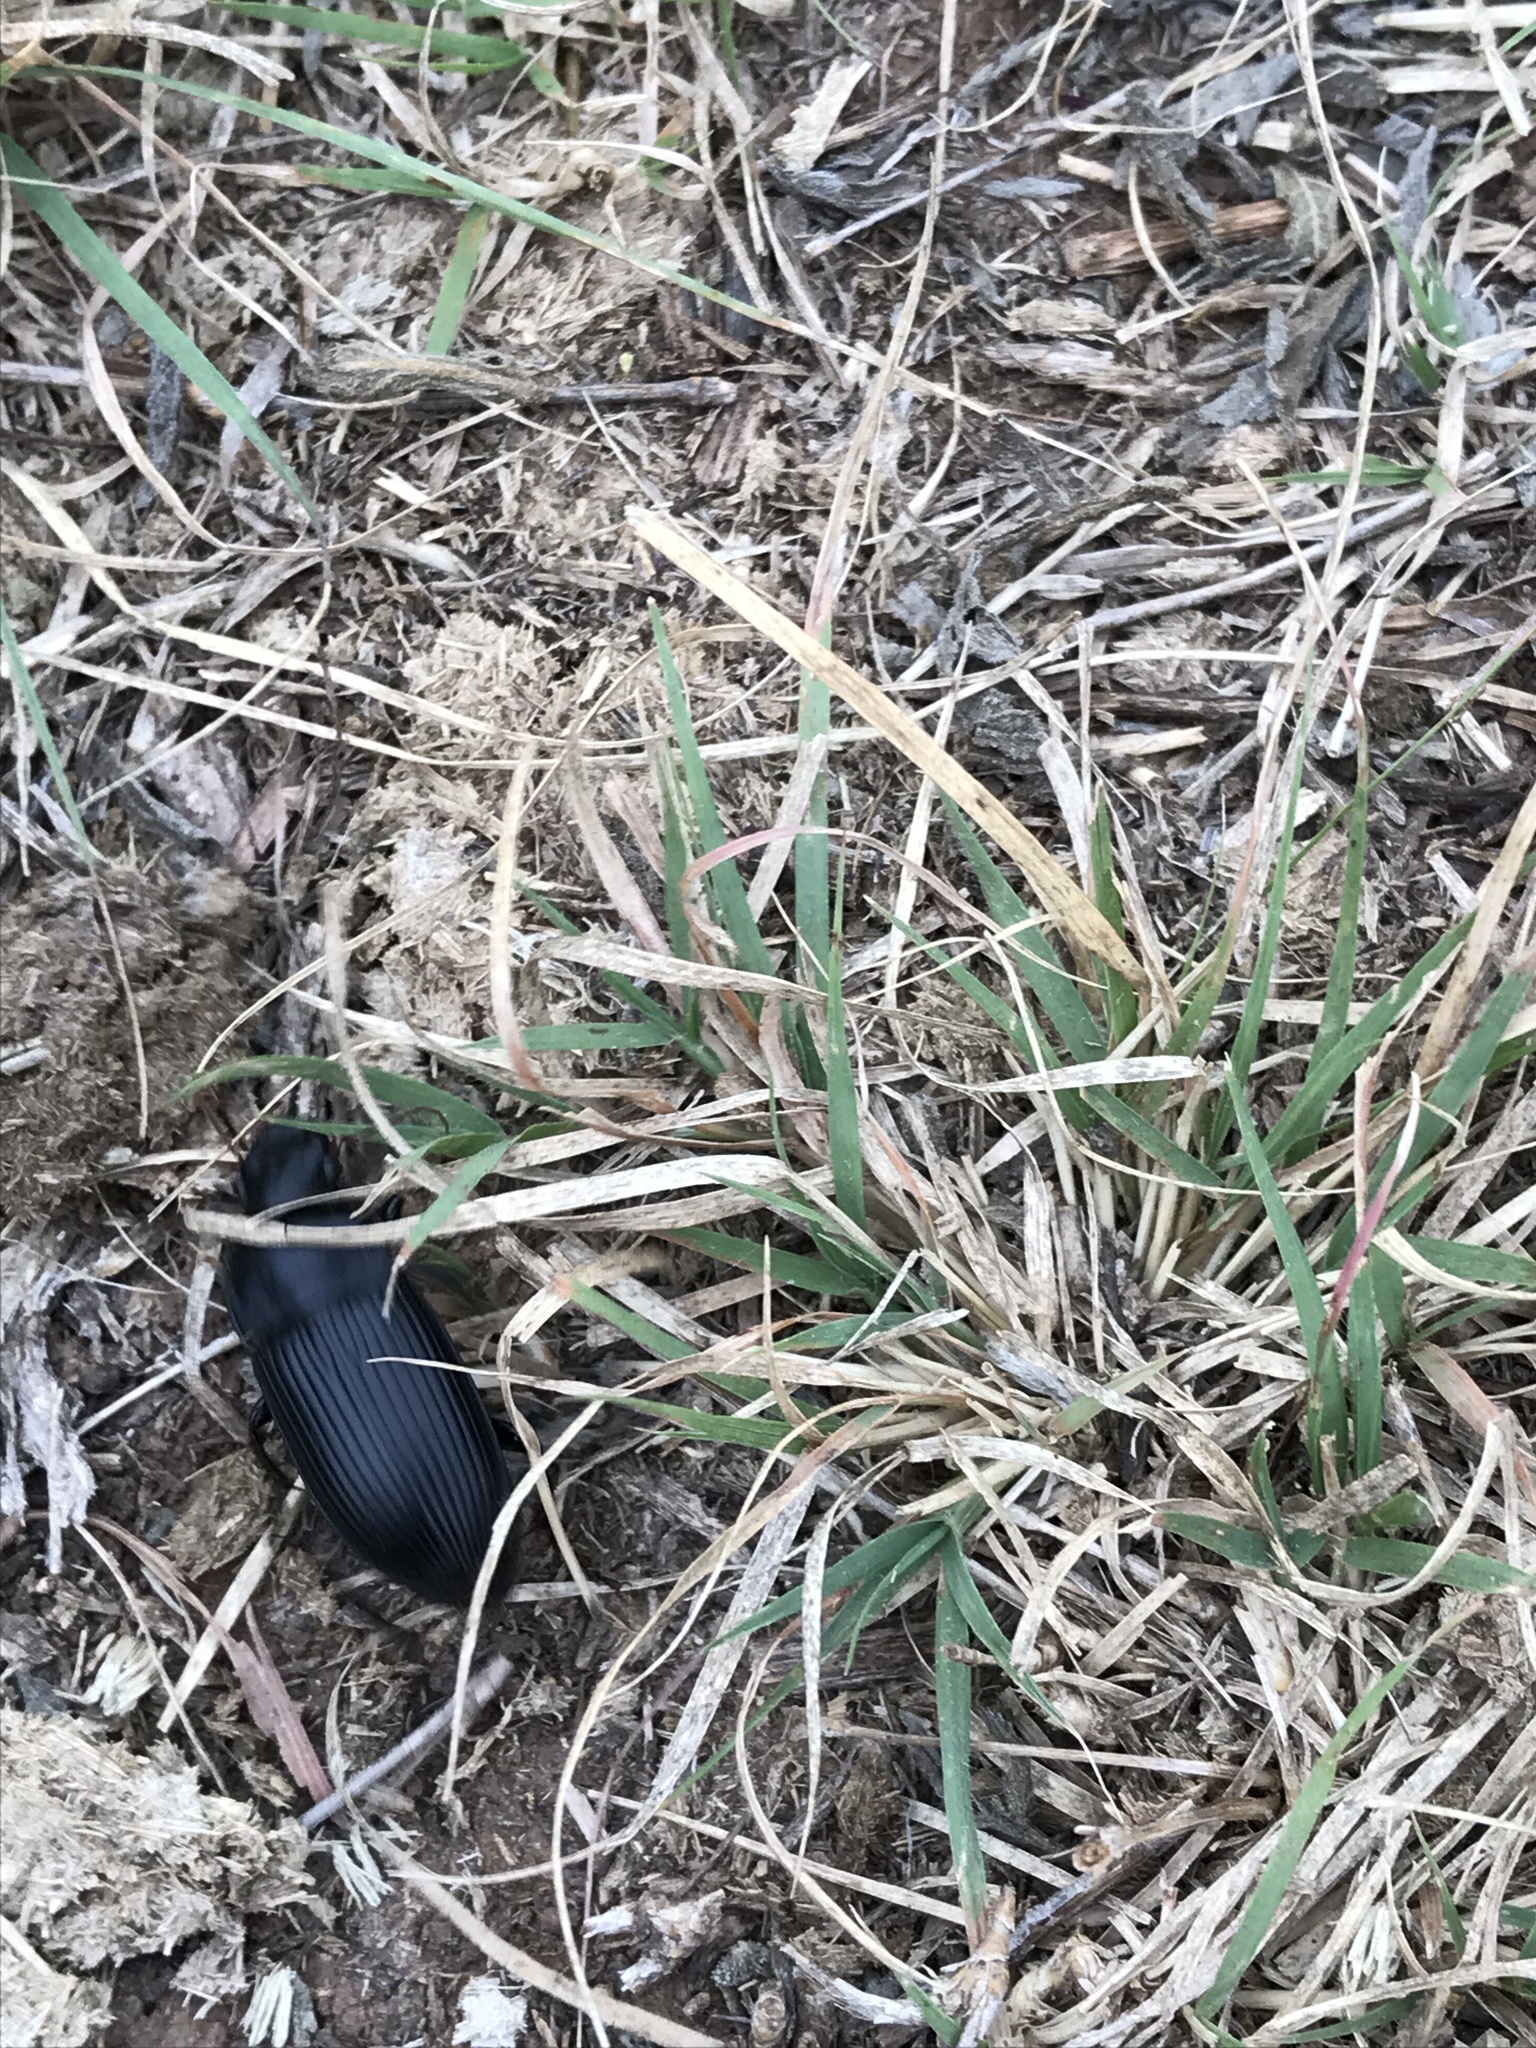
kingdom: Animalia
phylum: Arthropoda
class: Insecta
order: Coleoptera
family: Carabidae
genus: Harpalus
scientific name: Harpalus caliginosus
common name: Murky ground beetle
